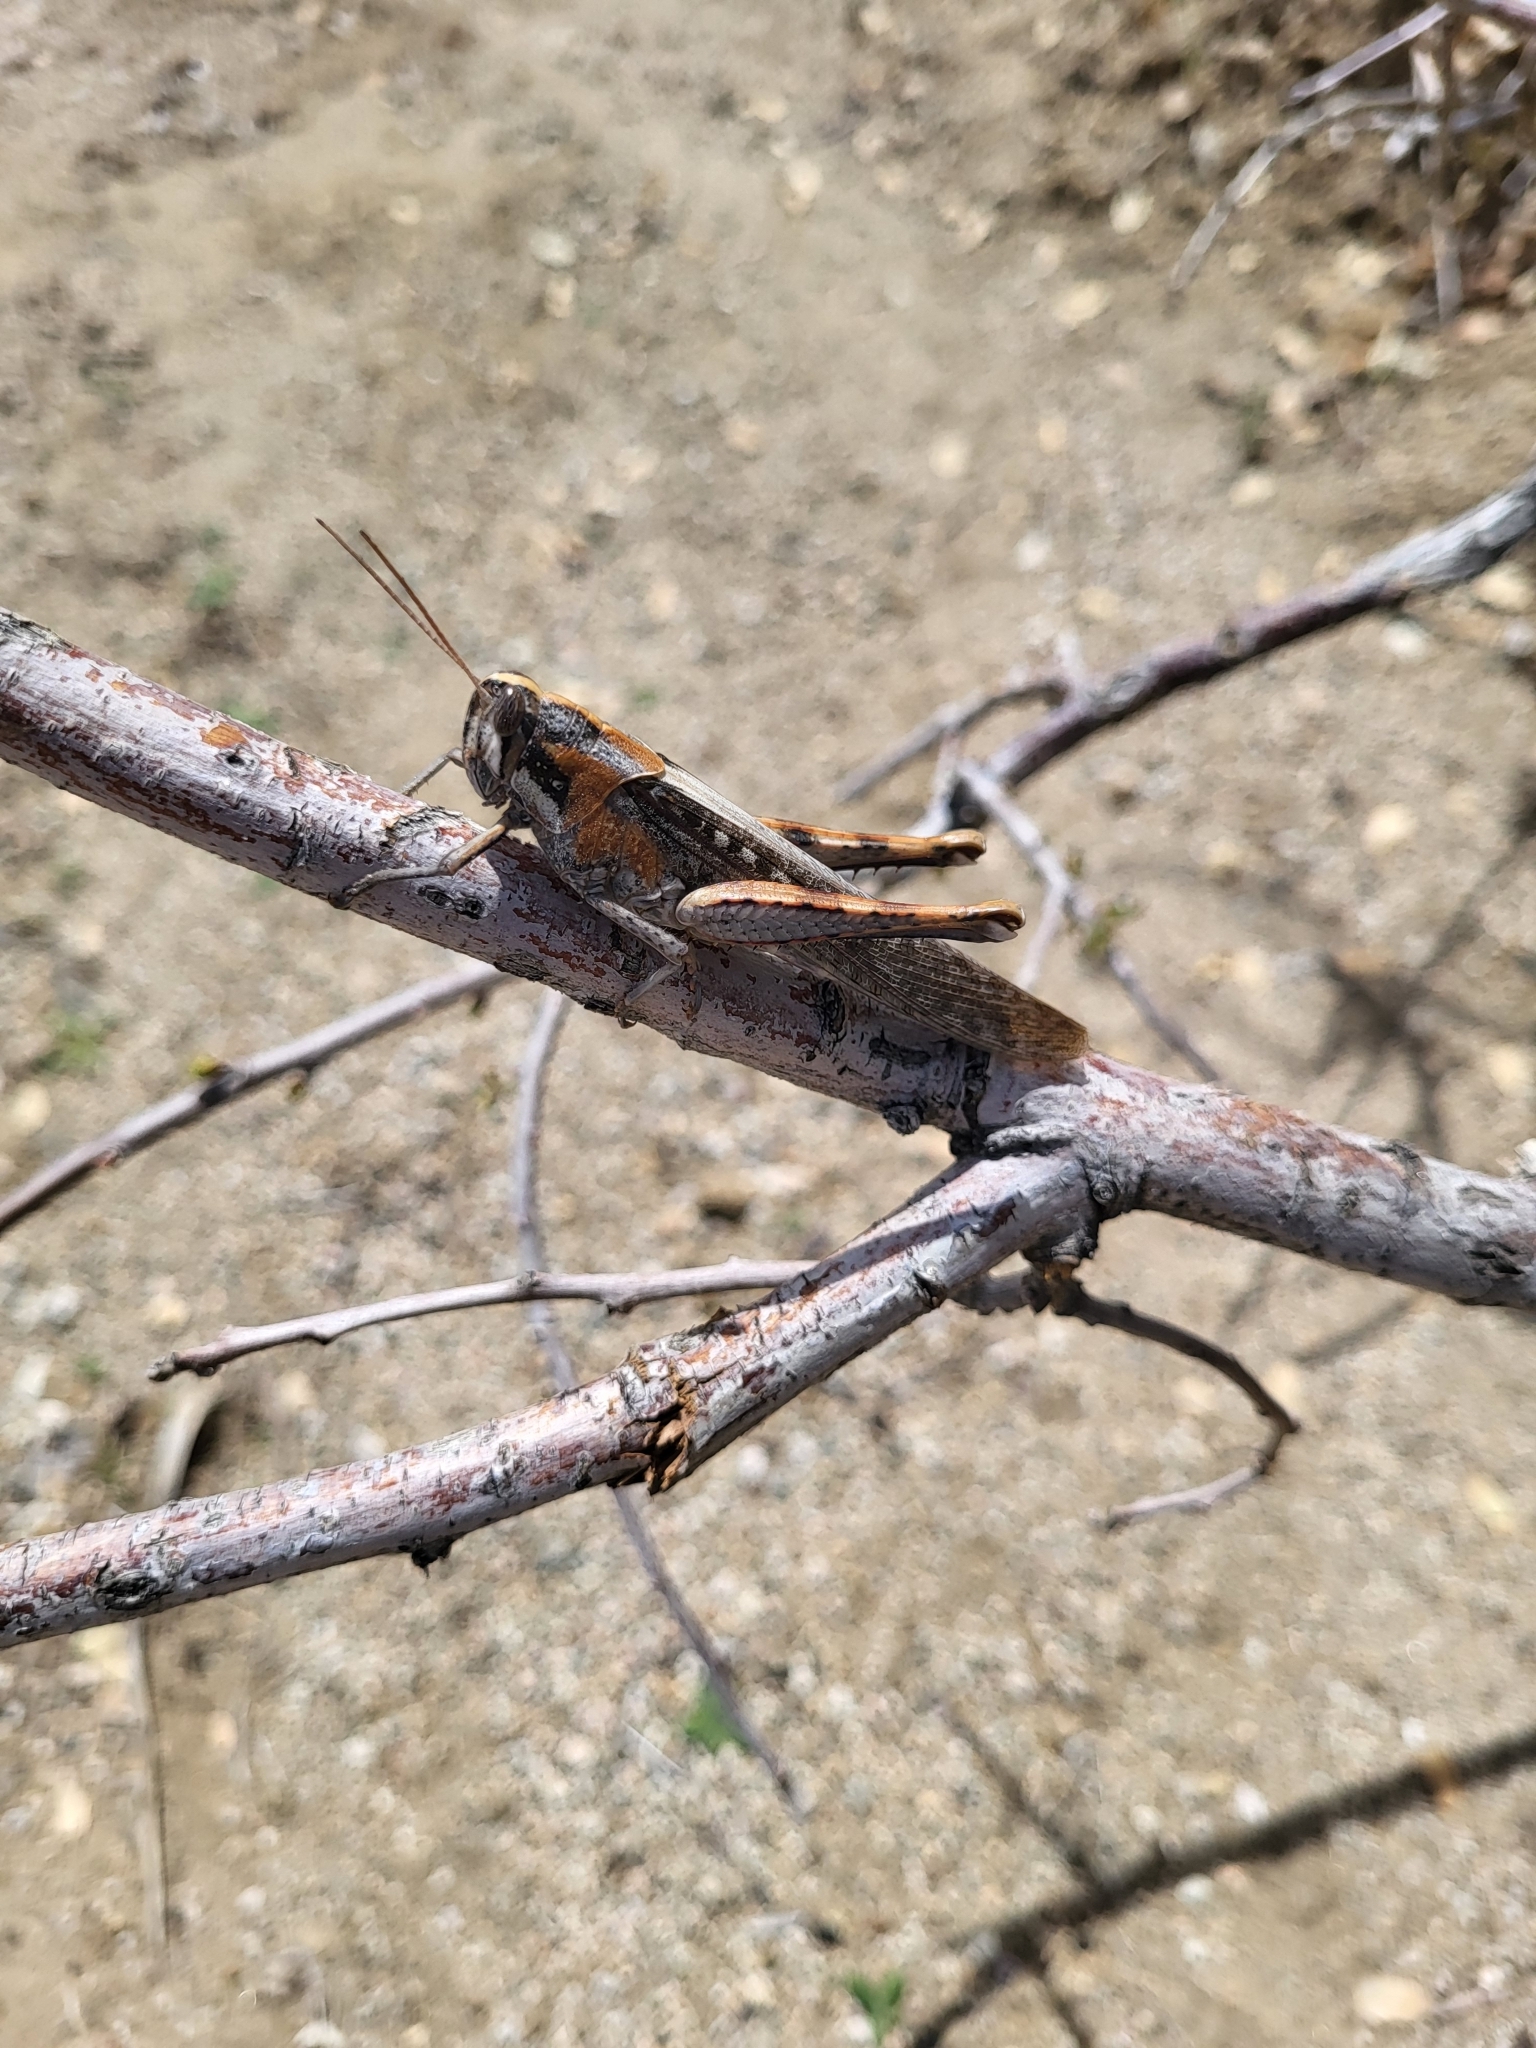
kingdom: Animalia
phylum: Arthropoda
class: Insecta
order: Orthoptera
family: Acrididae
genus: Schistocerca
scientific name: Schistocerca nitens
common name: Vagrant grasshopper
